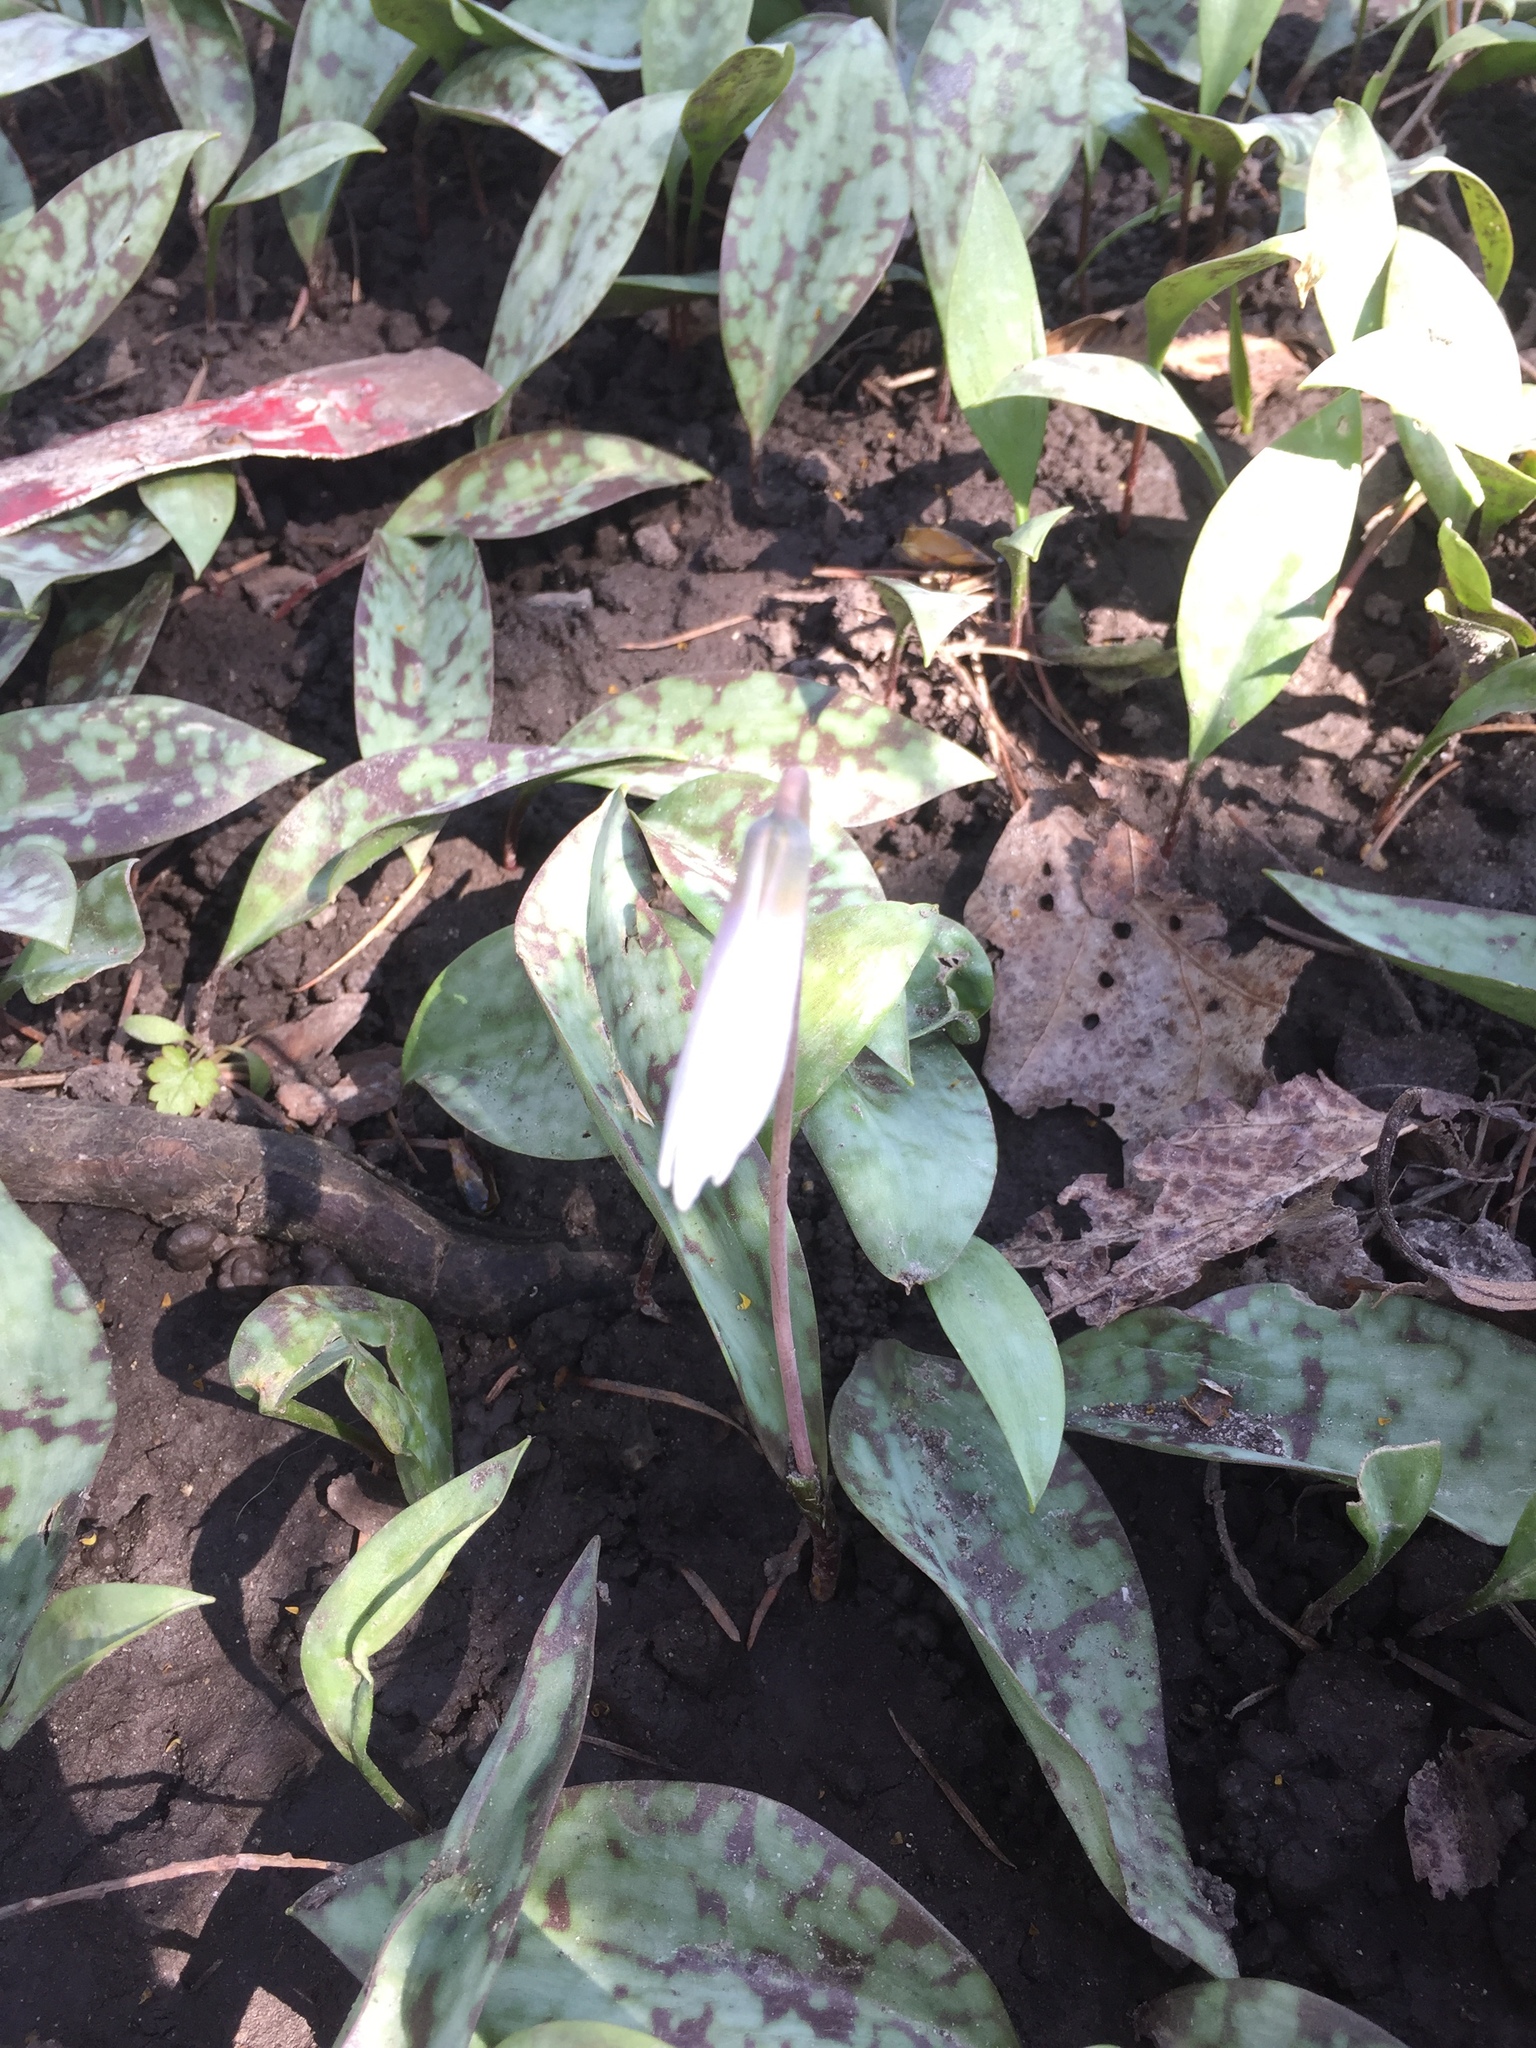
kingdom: Plantae
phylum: Tracheophyta
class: Liliopsida
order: Liliales
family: Liliaceae
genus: Erythronium
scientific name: Erythronium albidum
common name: White trout-lily
